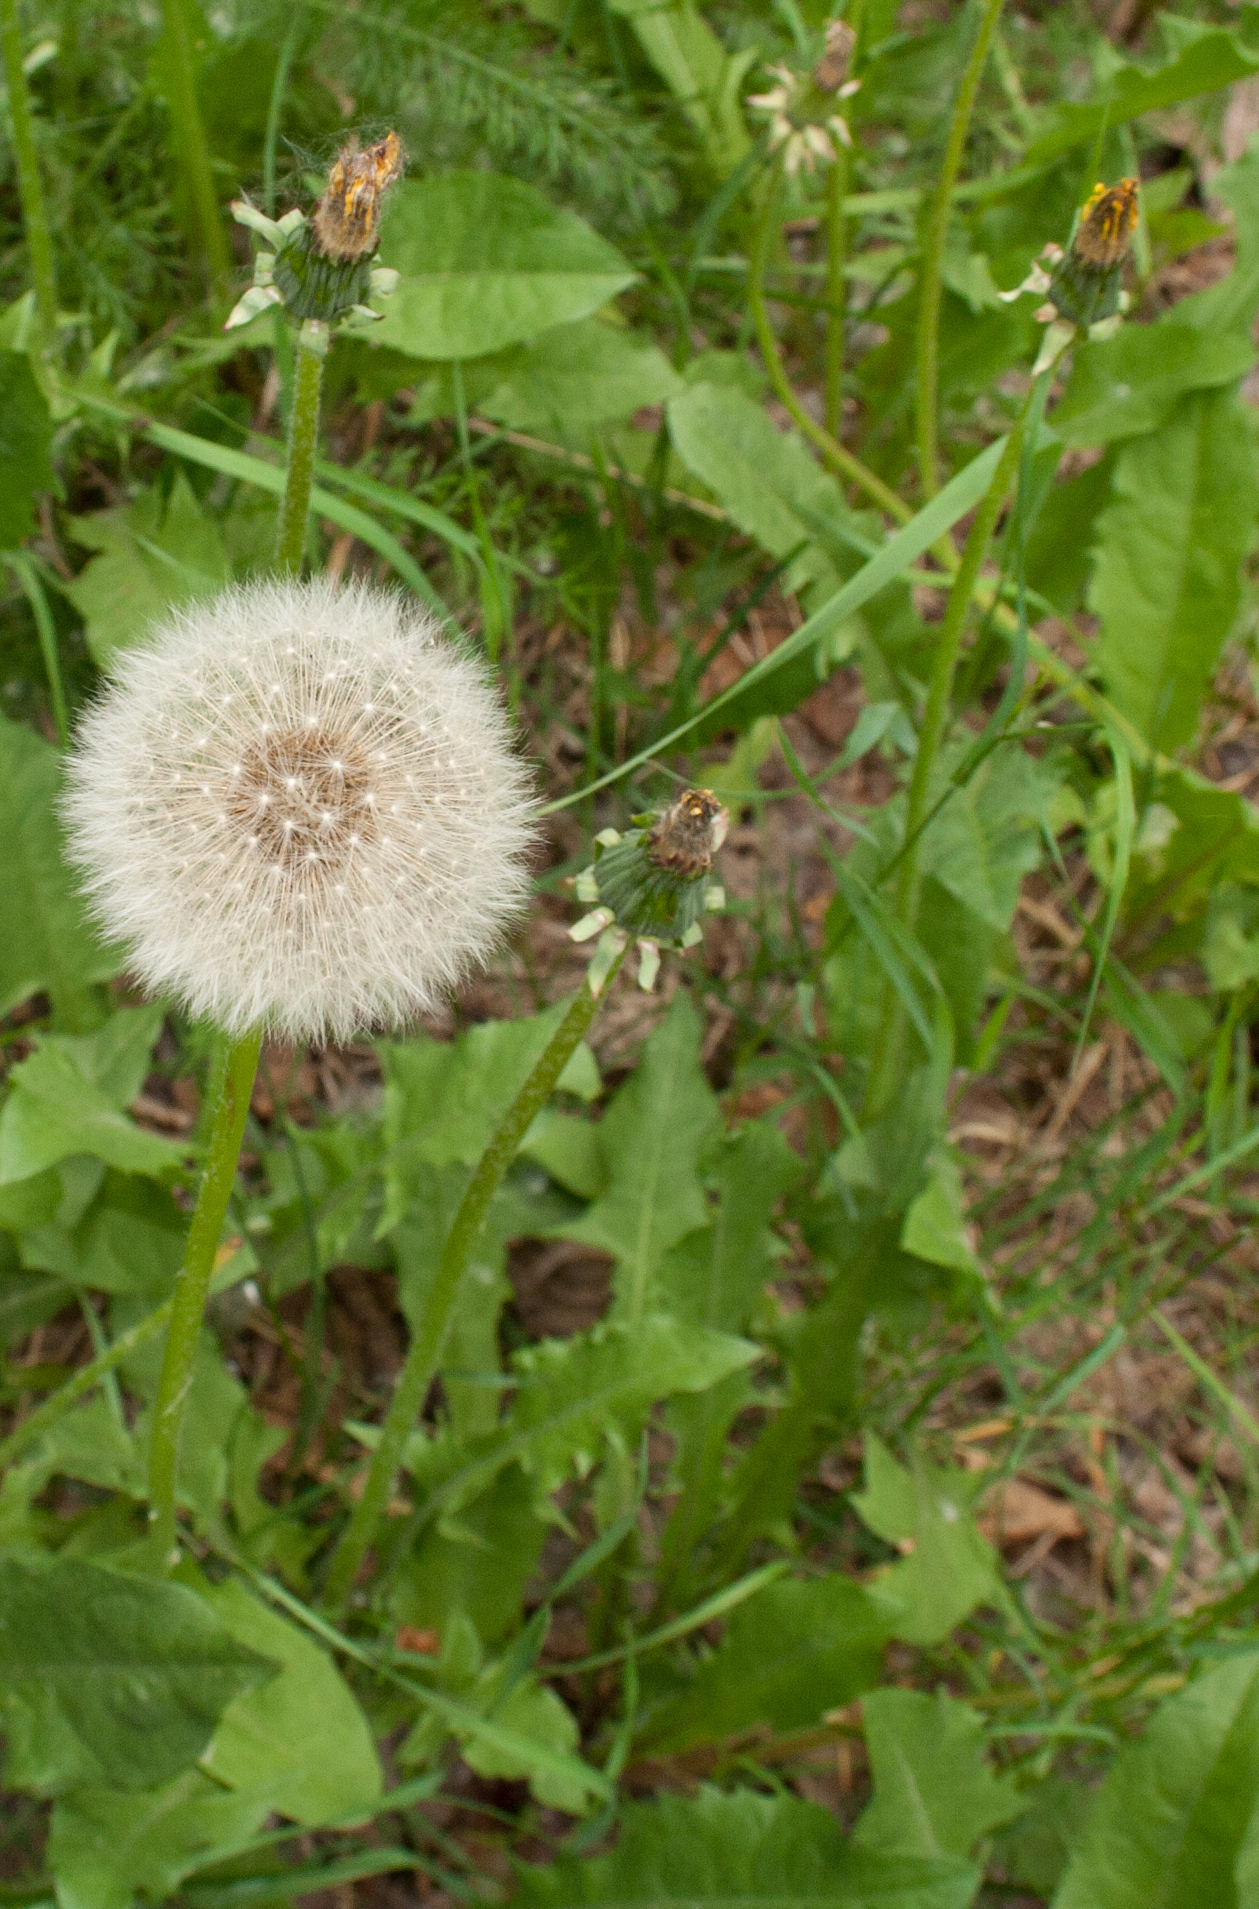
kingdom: Plantae
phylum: Tracheophyta
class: Magnoliopsida
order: Asterales
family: Asteraceae
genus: Taraxacum
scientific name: Taraxacum officinale
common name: Common dandelion
